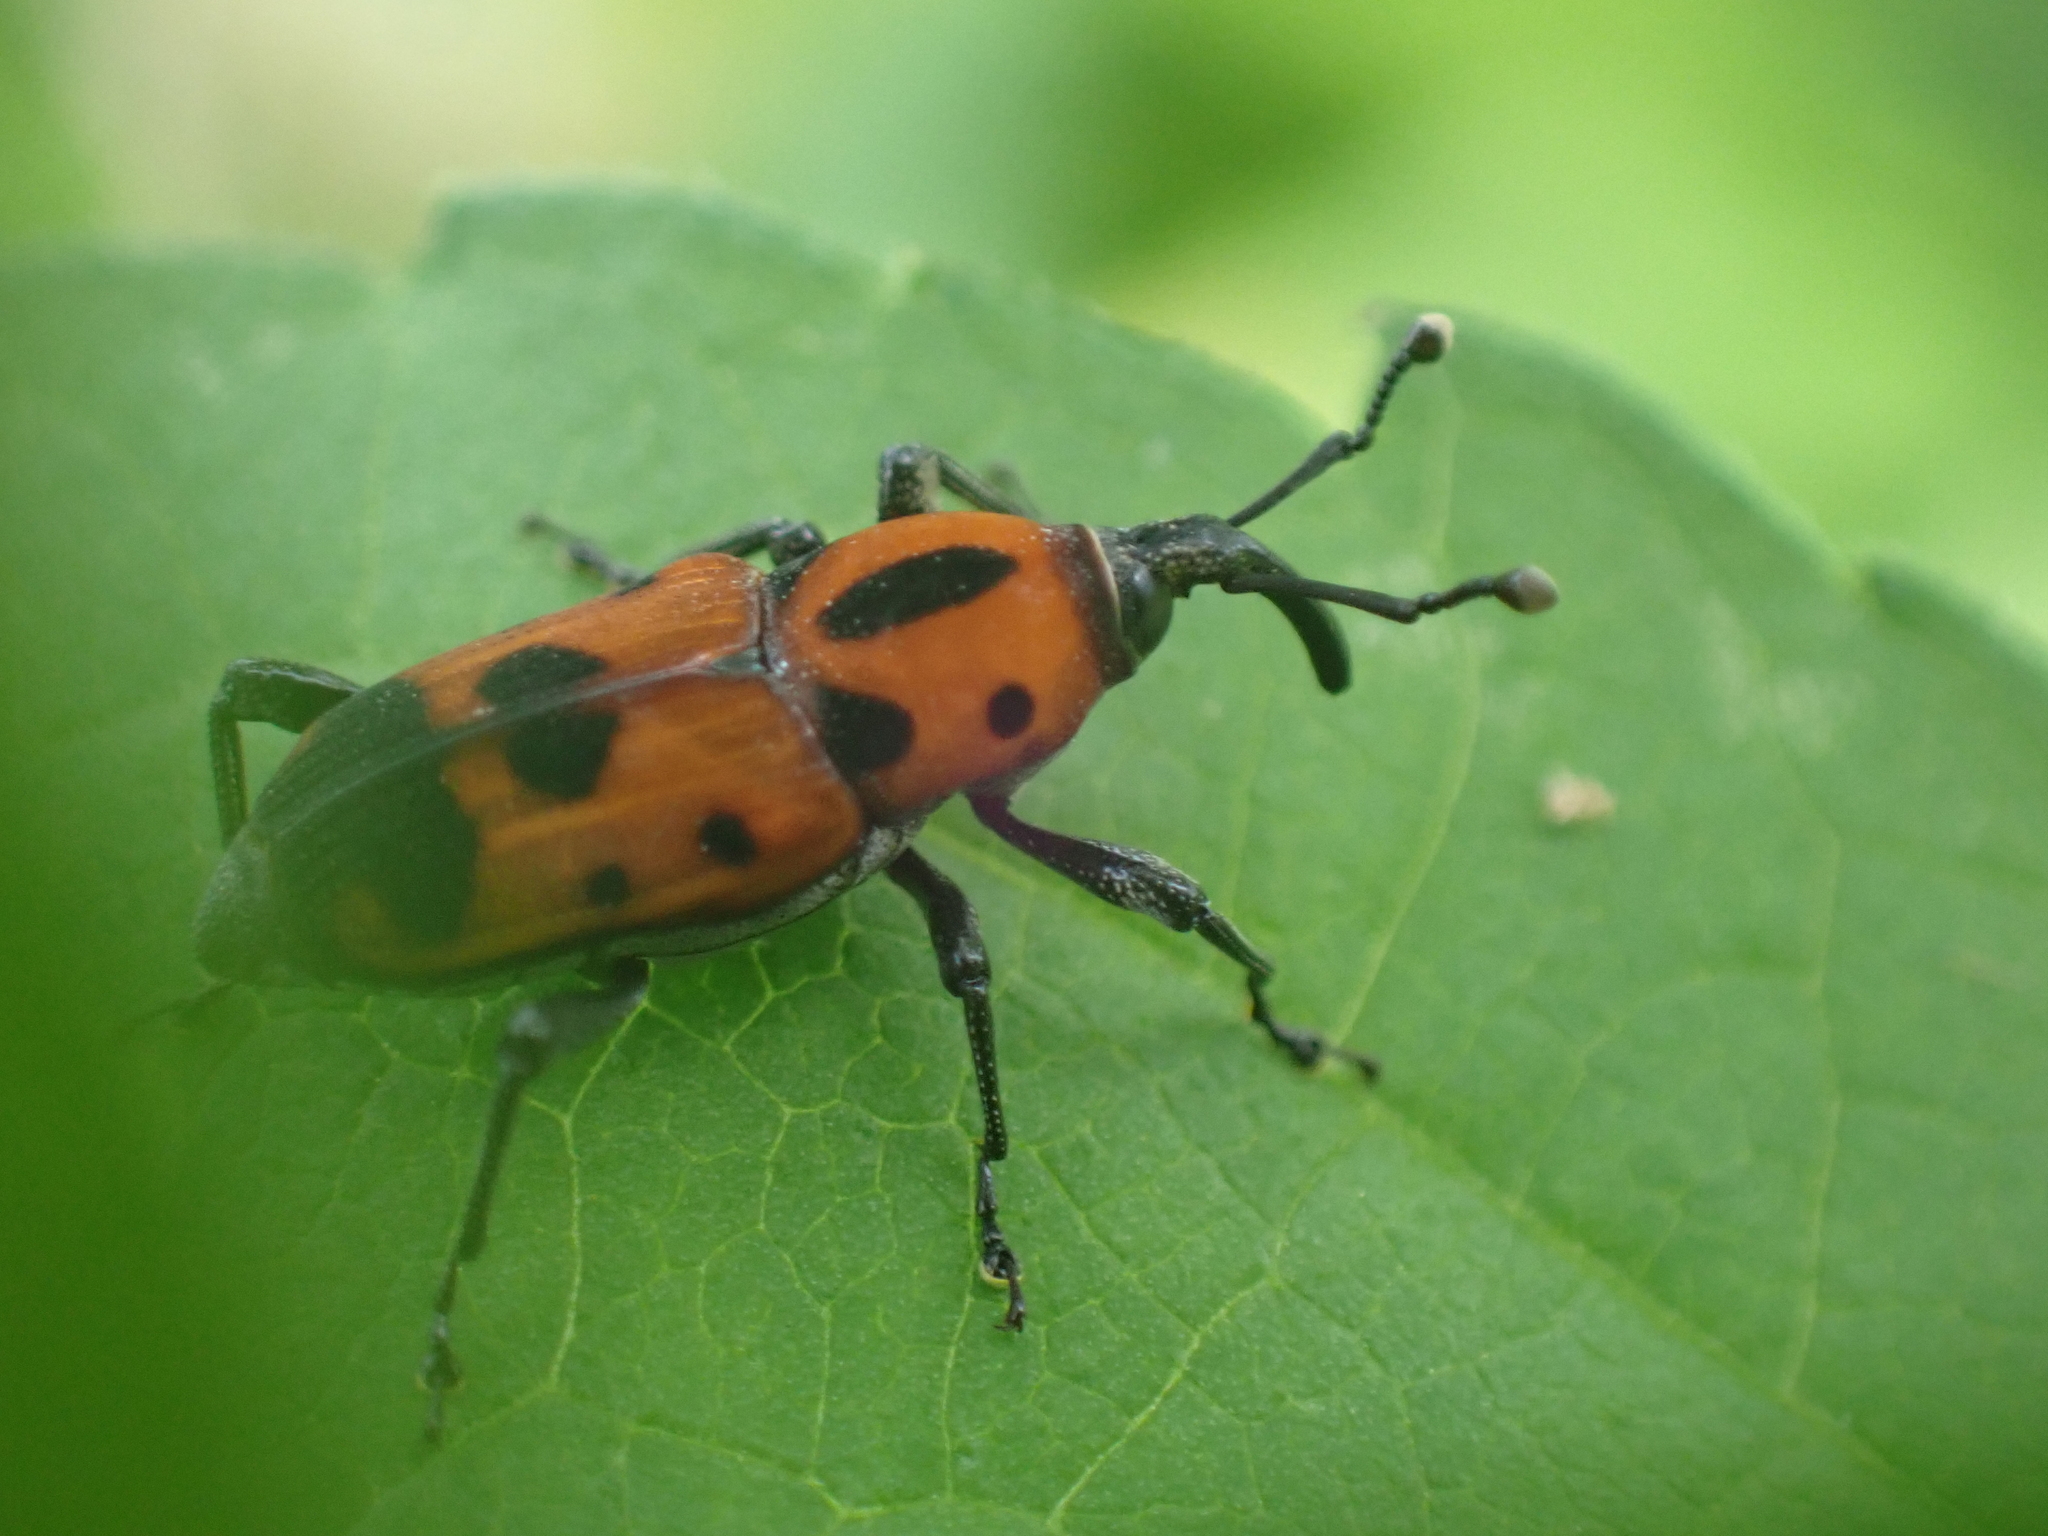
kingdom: Animalia
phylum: Arthropoda
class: Insecta
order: Coleoptera
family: Dryophthoridae
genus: Rhodobaenus
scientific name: Rhodobaenus quinquepunctatus
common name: Cocklebur weevil
